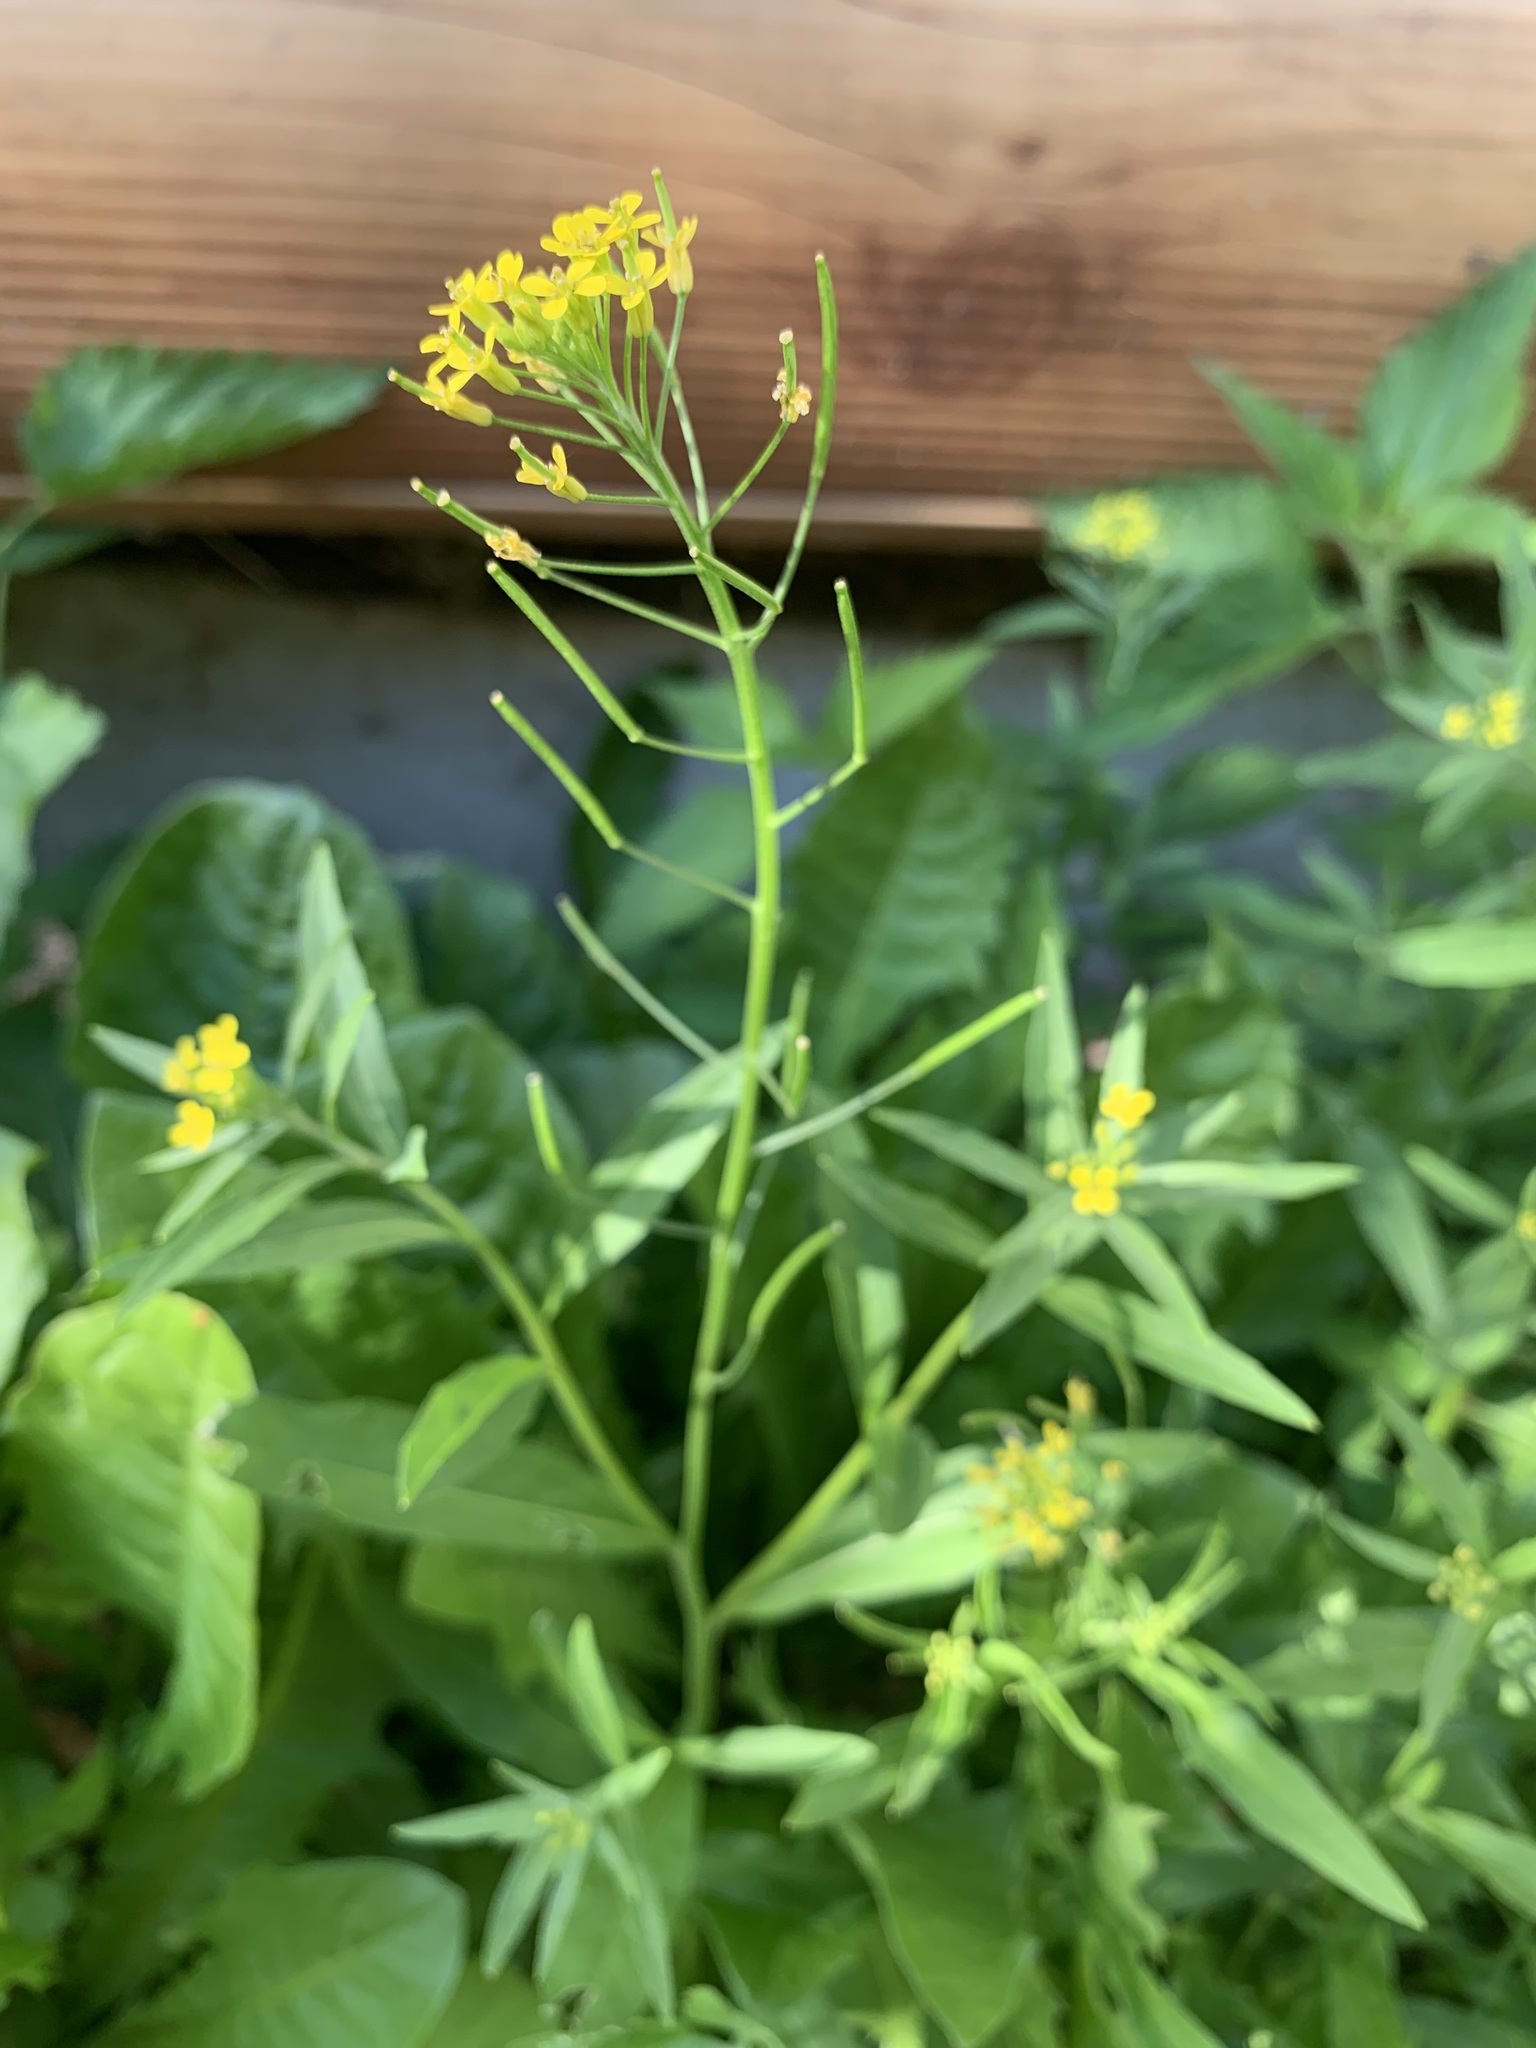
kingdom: Plantae
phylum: Tracheophyta
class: Magnoliopsida
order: Brassicales
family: Brassicaceae
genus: Erysimum
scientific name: Erysimum cheiranthoides
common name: Treacle mustard
